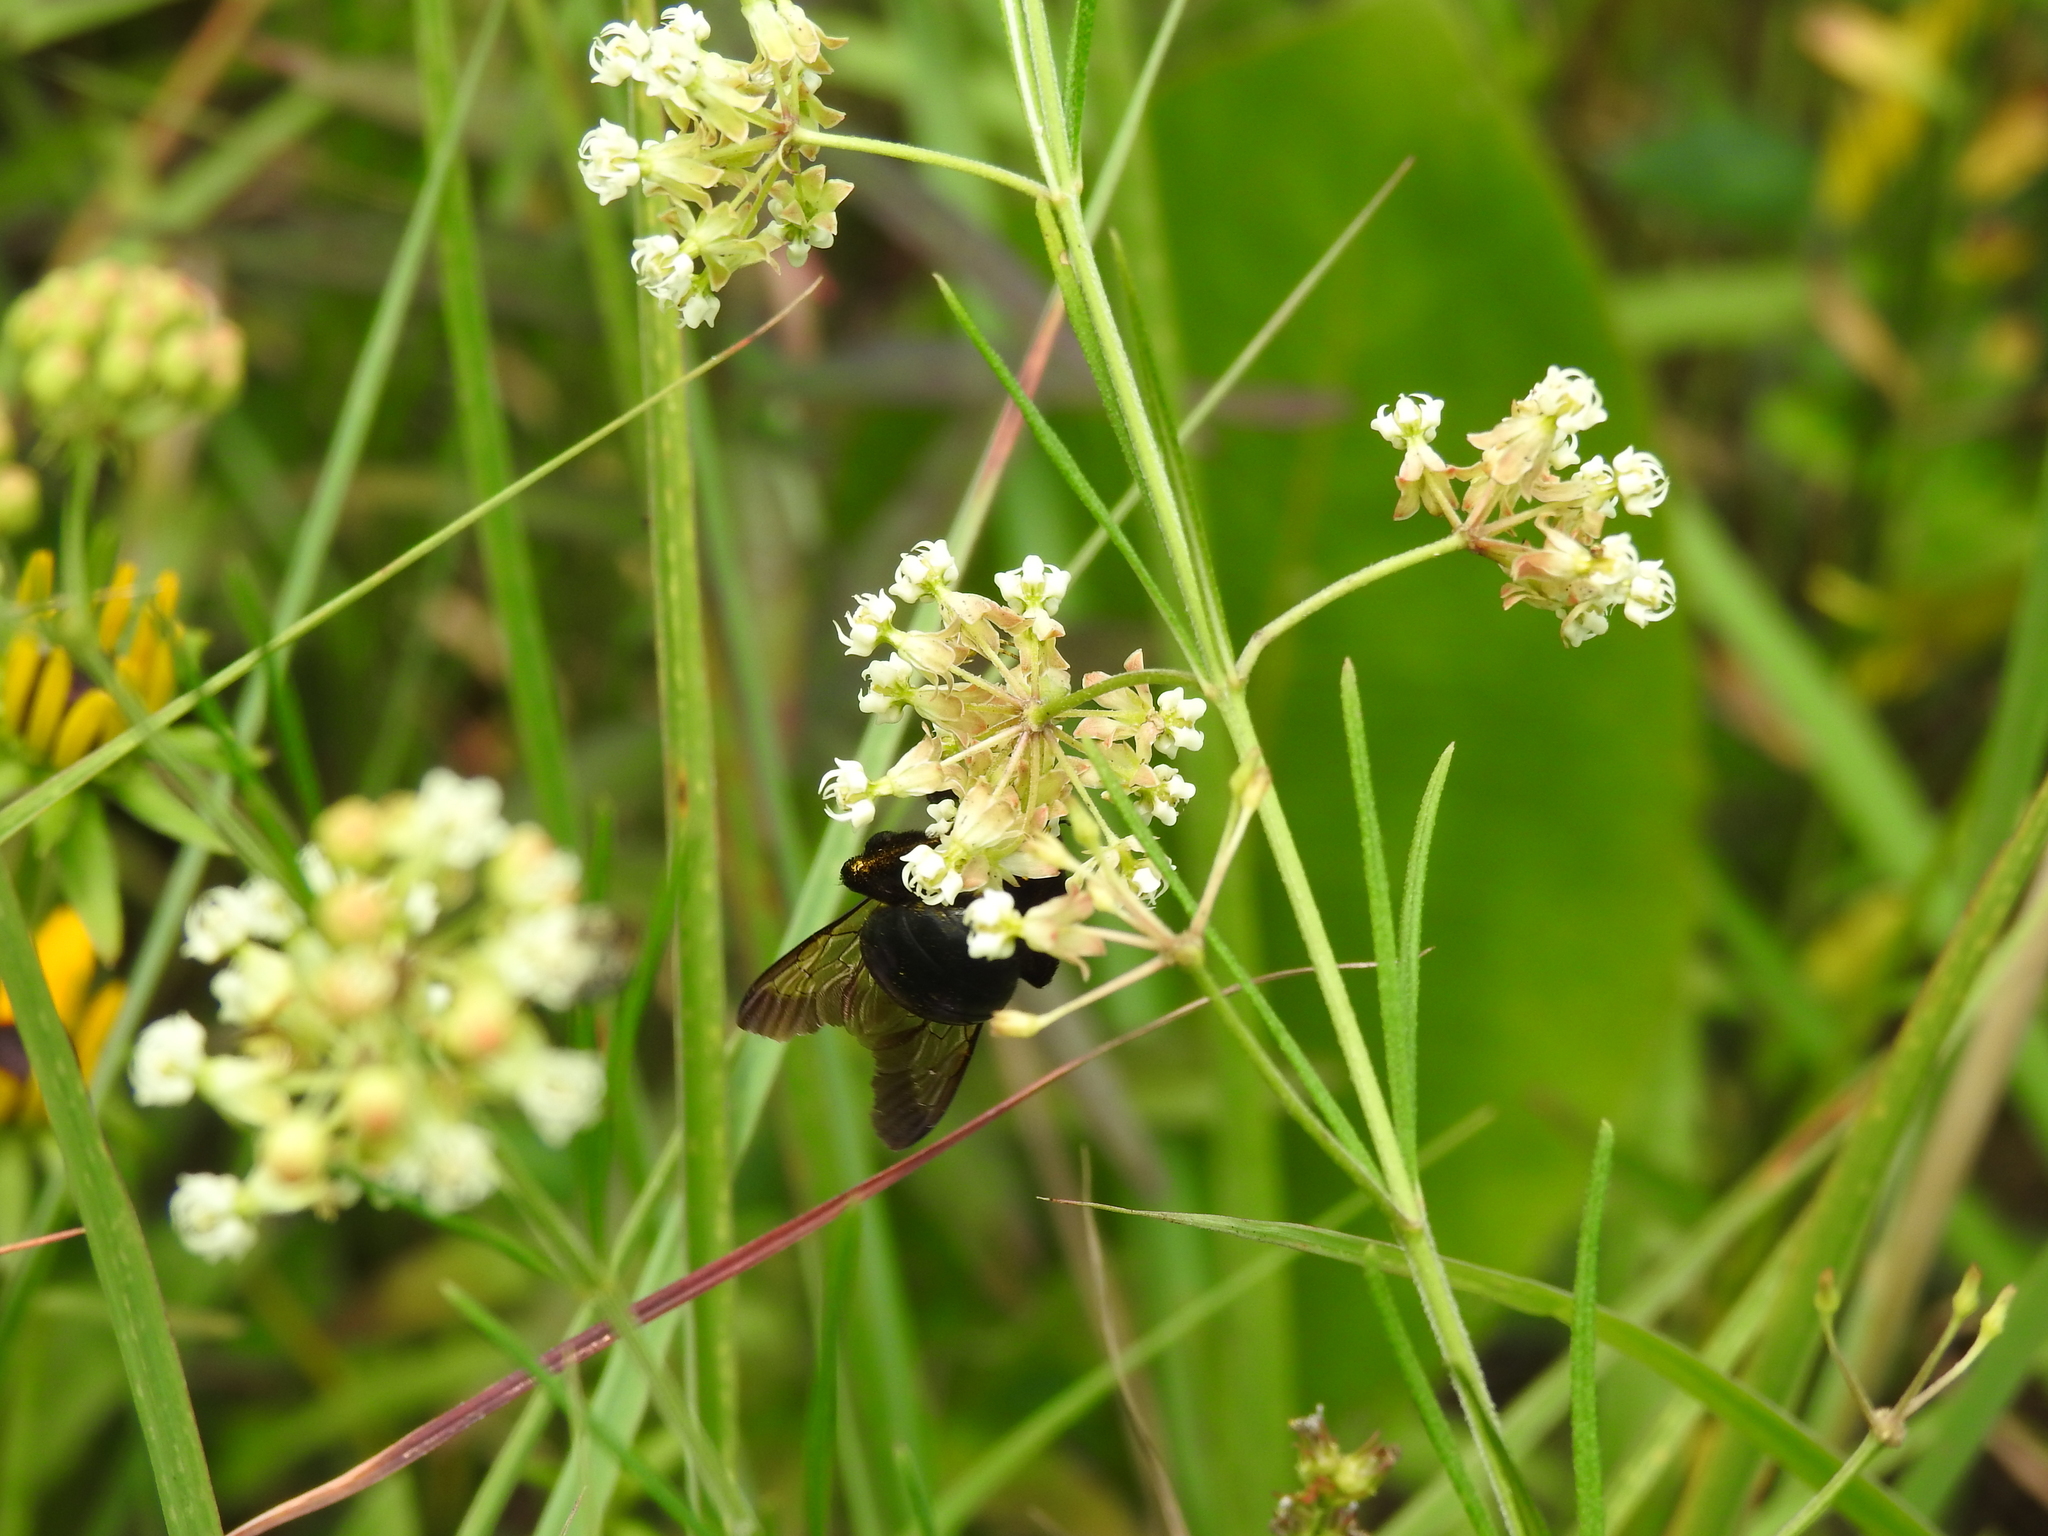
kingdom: Animalia
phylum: Arthropoda
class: Insecta
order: Hymenoptera
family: Apidae
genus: Xylocopa
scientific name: Xylocopa virginica
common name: Carpenter bee
